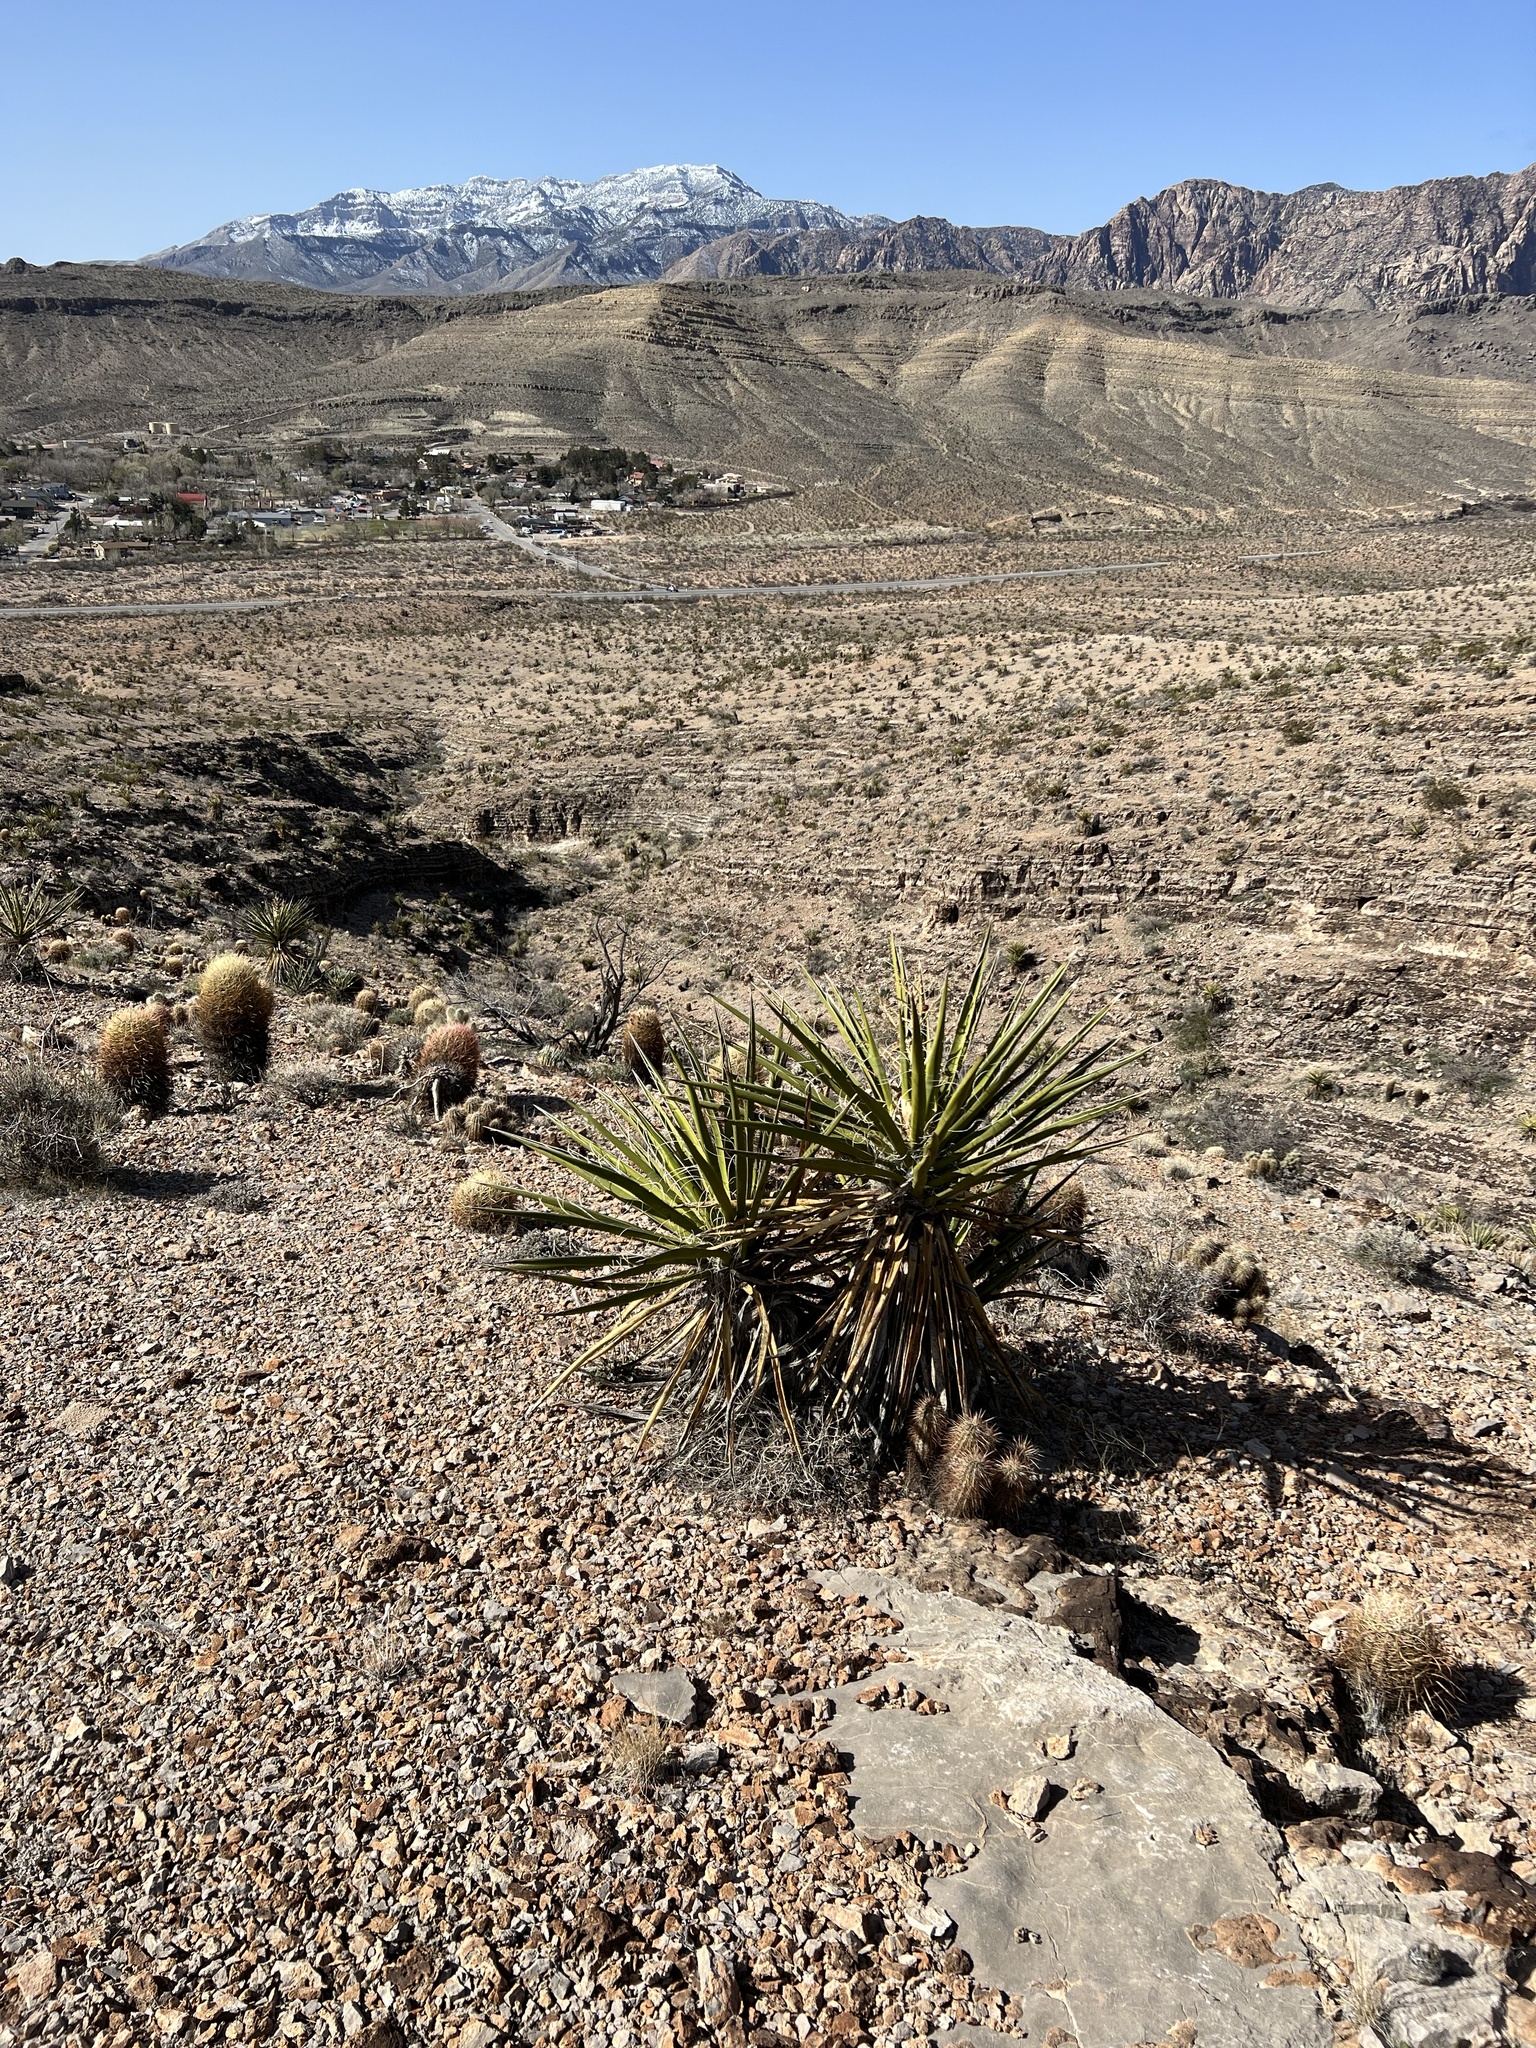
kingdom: Plantae
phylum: Tracheophyta
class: Liliopsida
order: Asparagales
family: Asparagaceae
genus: Yucca
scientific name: Yucca schidigera
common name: Mojave yucca
